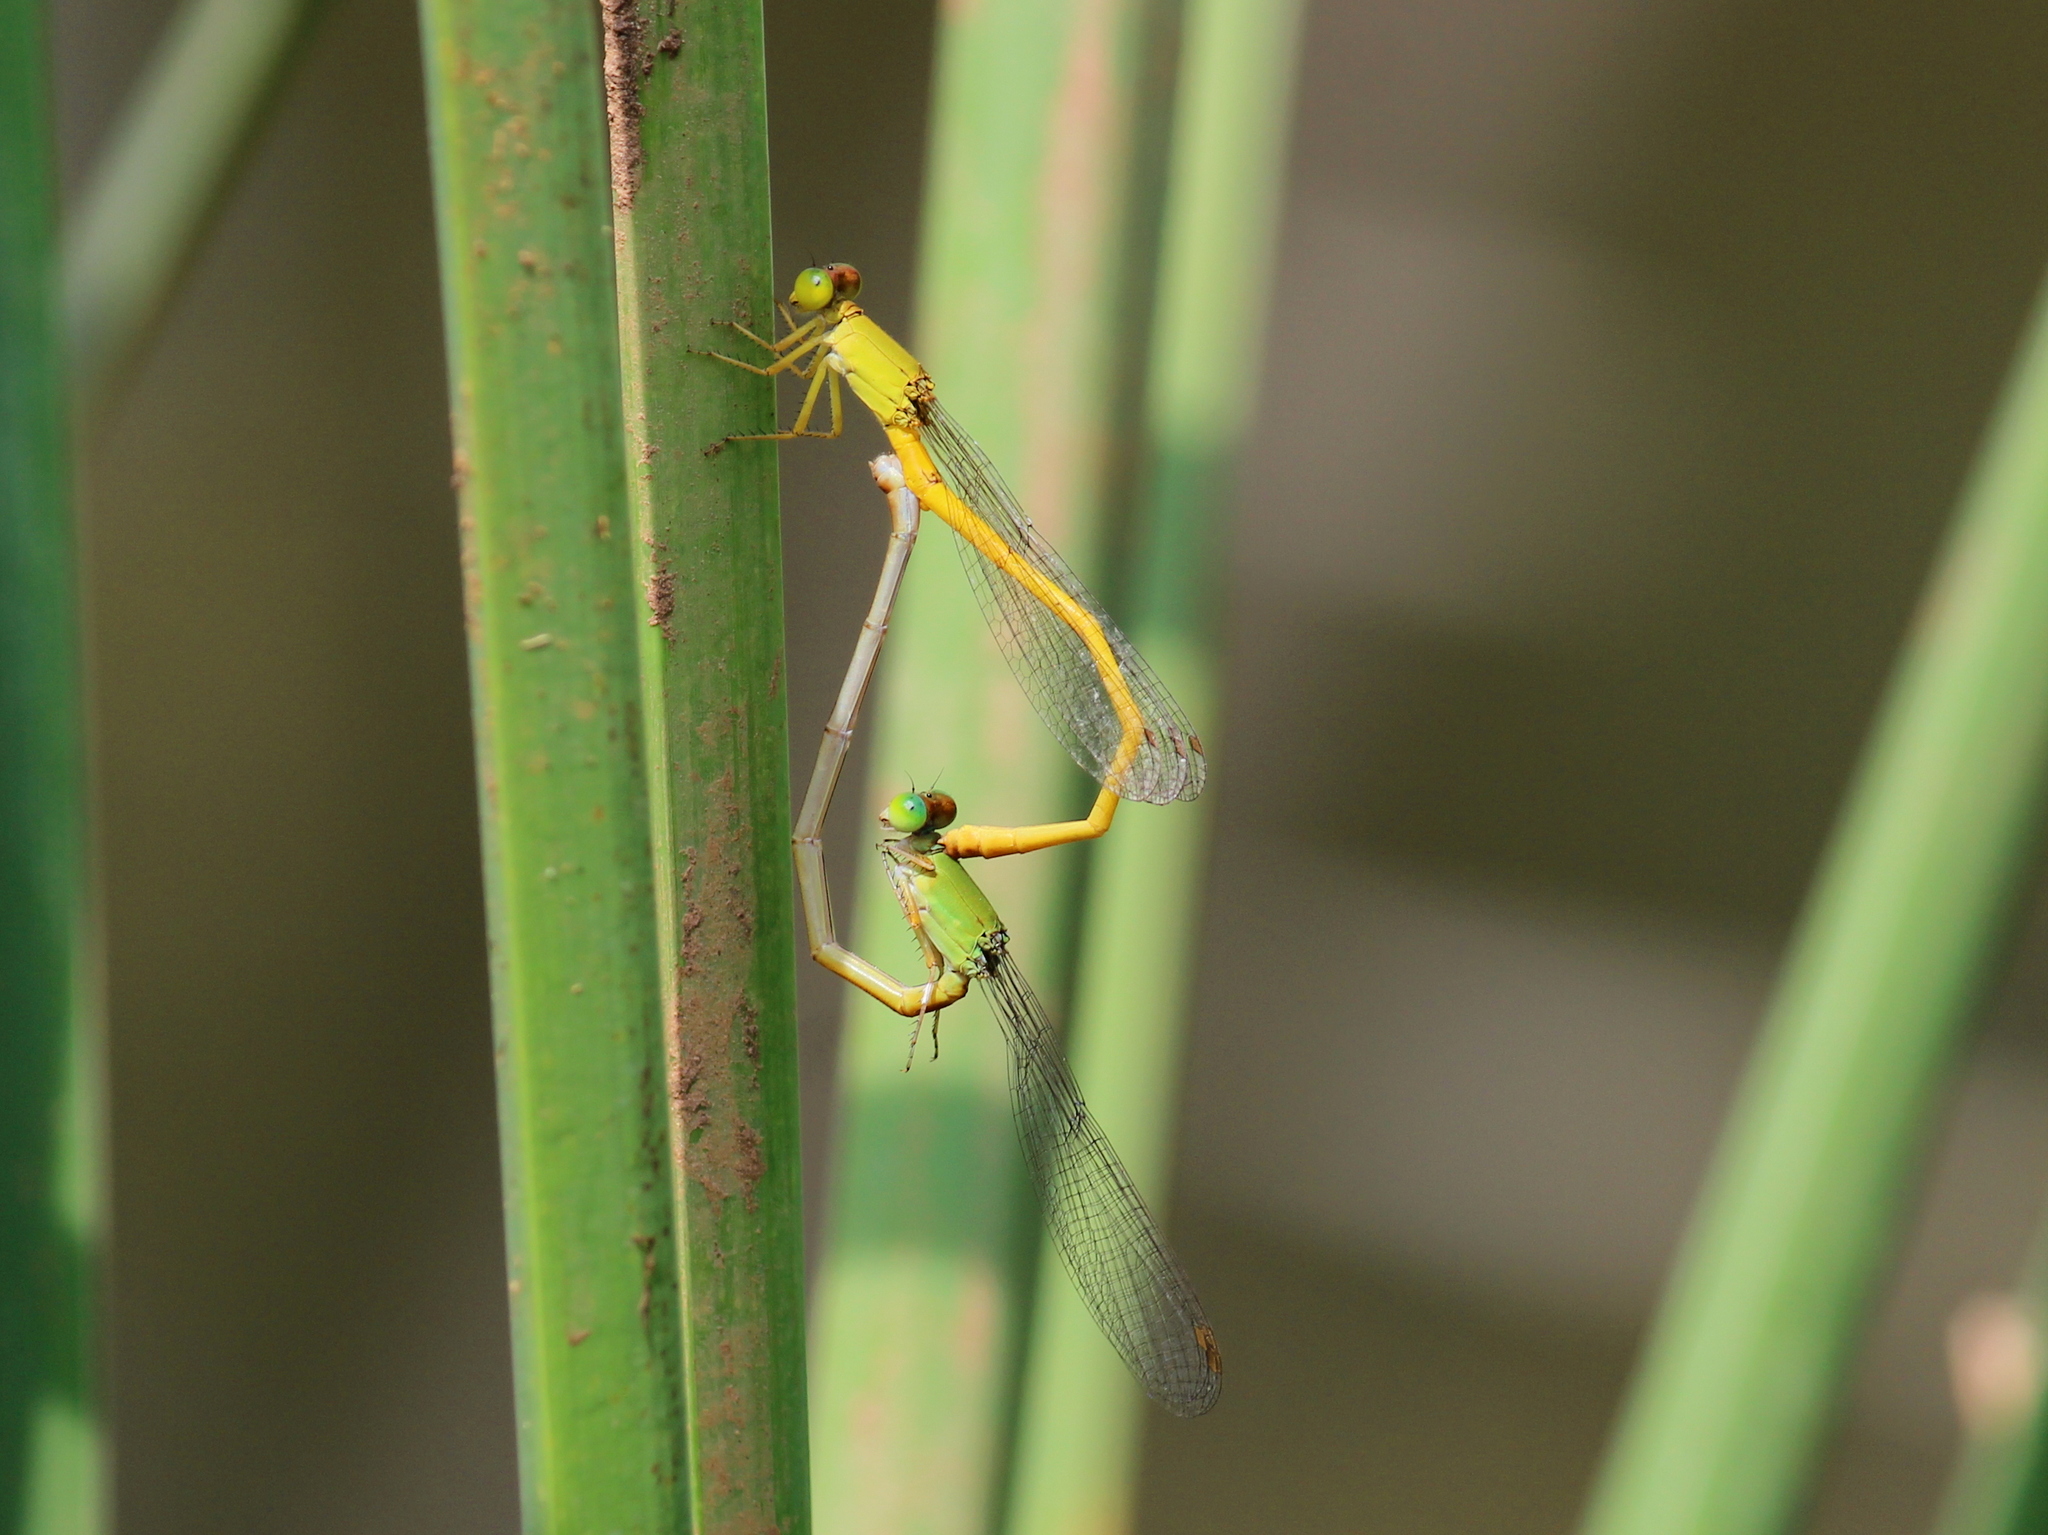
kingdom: Animalia
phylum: Arthropoda
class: Insecta
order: Odonata
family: Coenagrionidae
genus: Ceriagrion
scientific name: Ceriagrion coromandelianum
